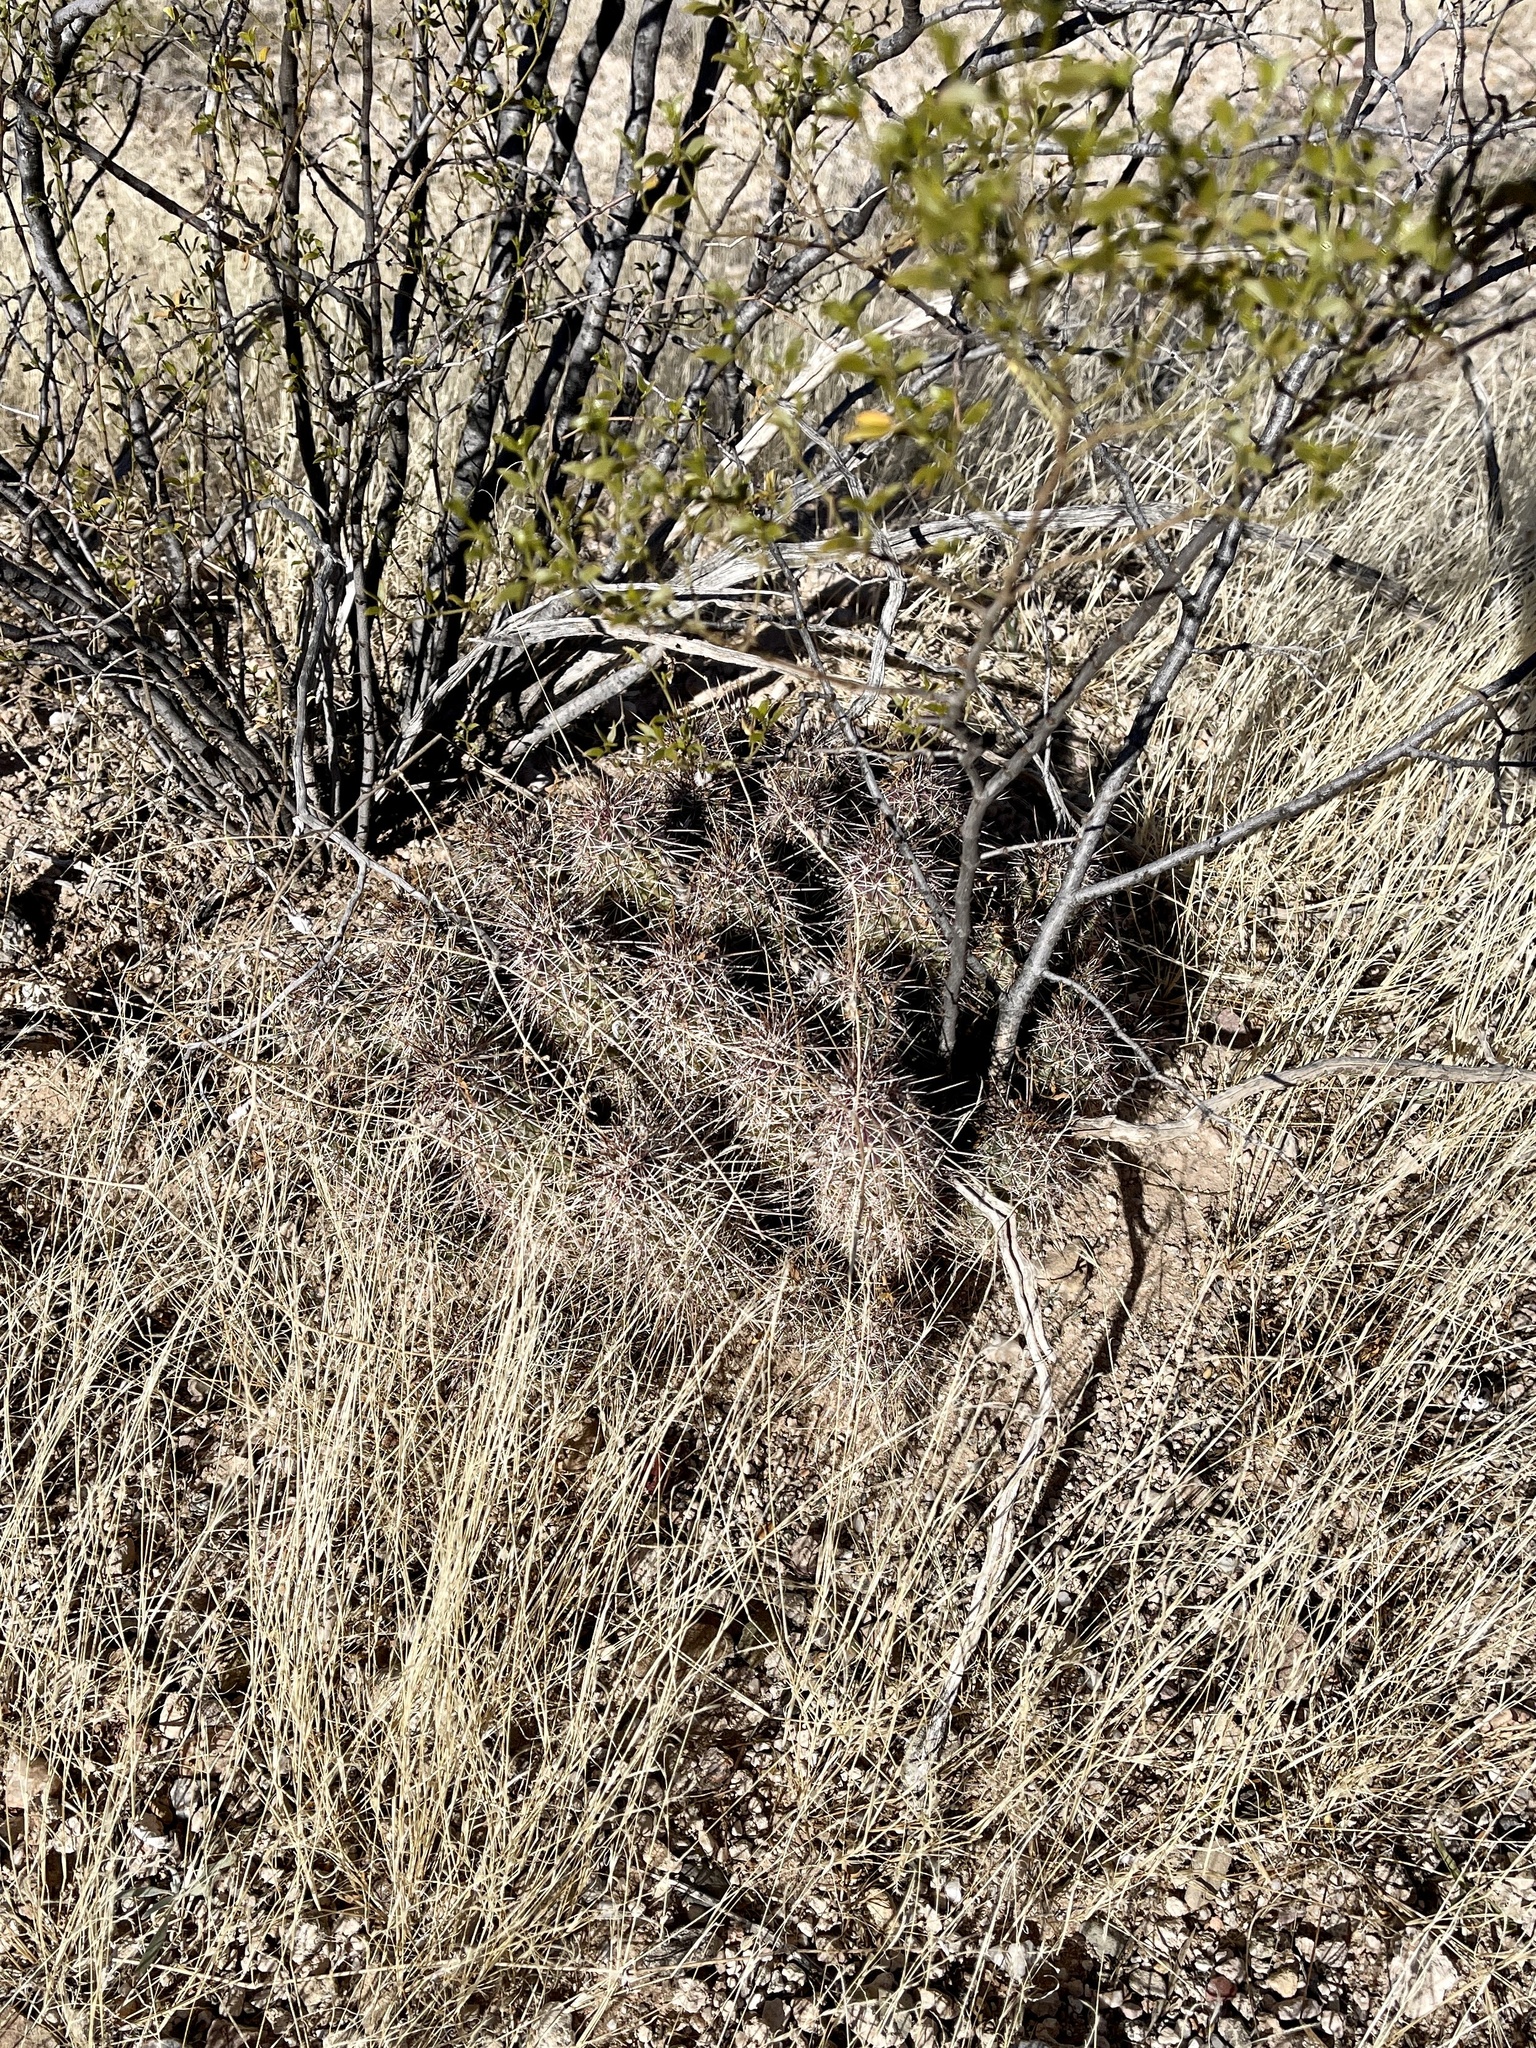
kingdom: Plantae
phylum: Tracheophyta
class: Magnoliopsida
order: Caryophyllales
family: Cactaceae
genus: Echinocereus
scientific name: Echinocereus fasciculatus
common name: Bundle hedgehog
